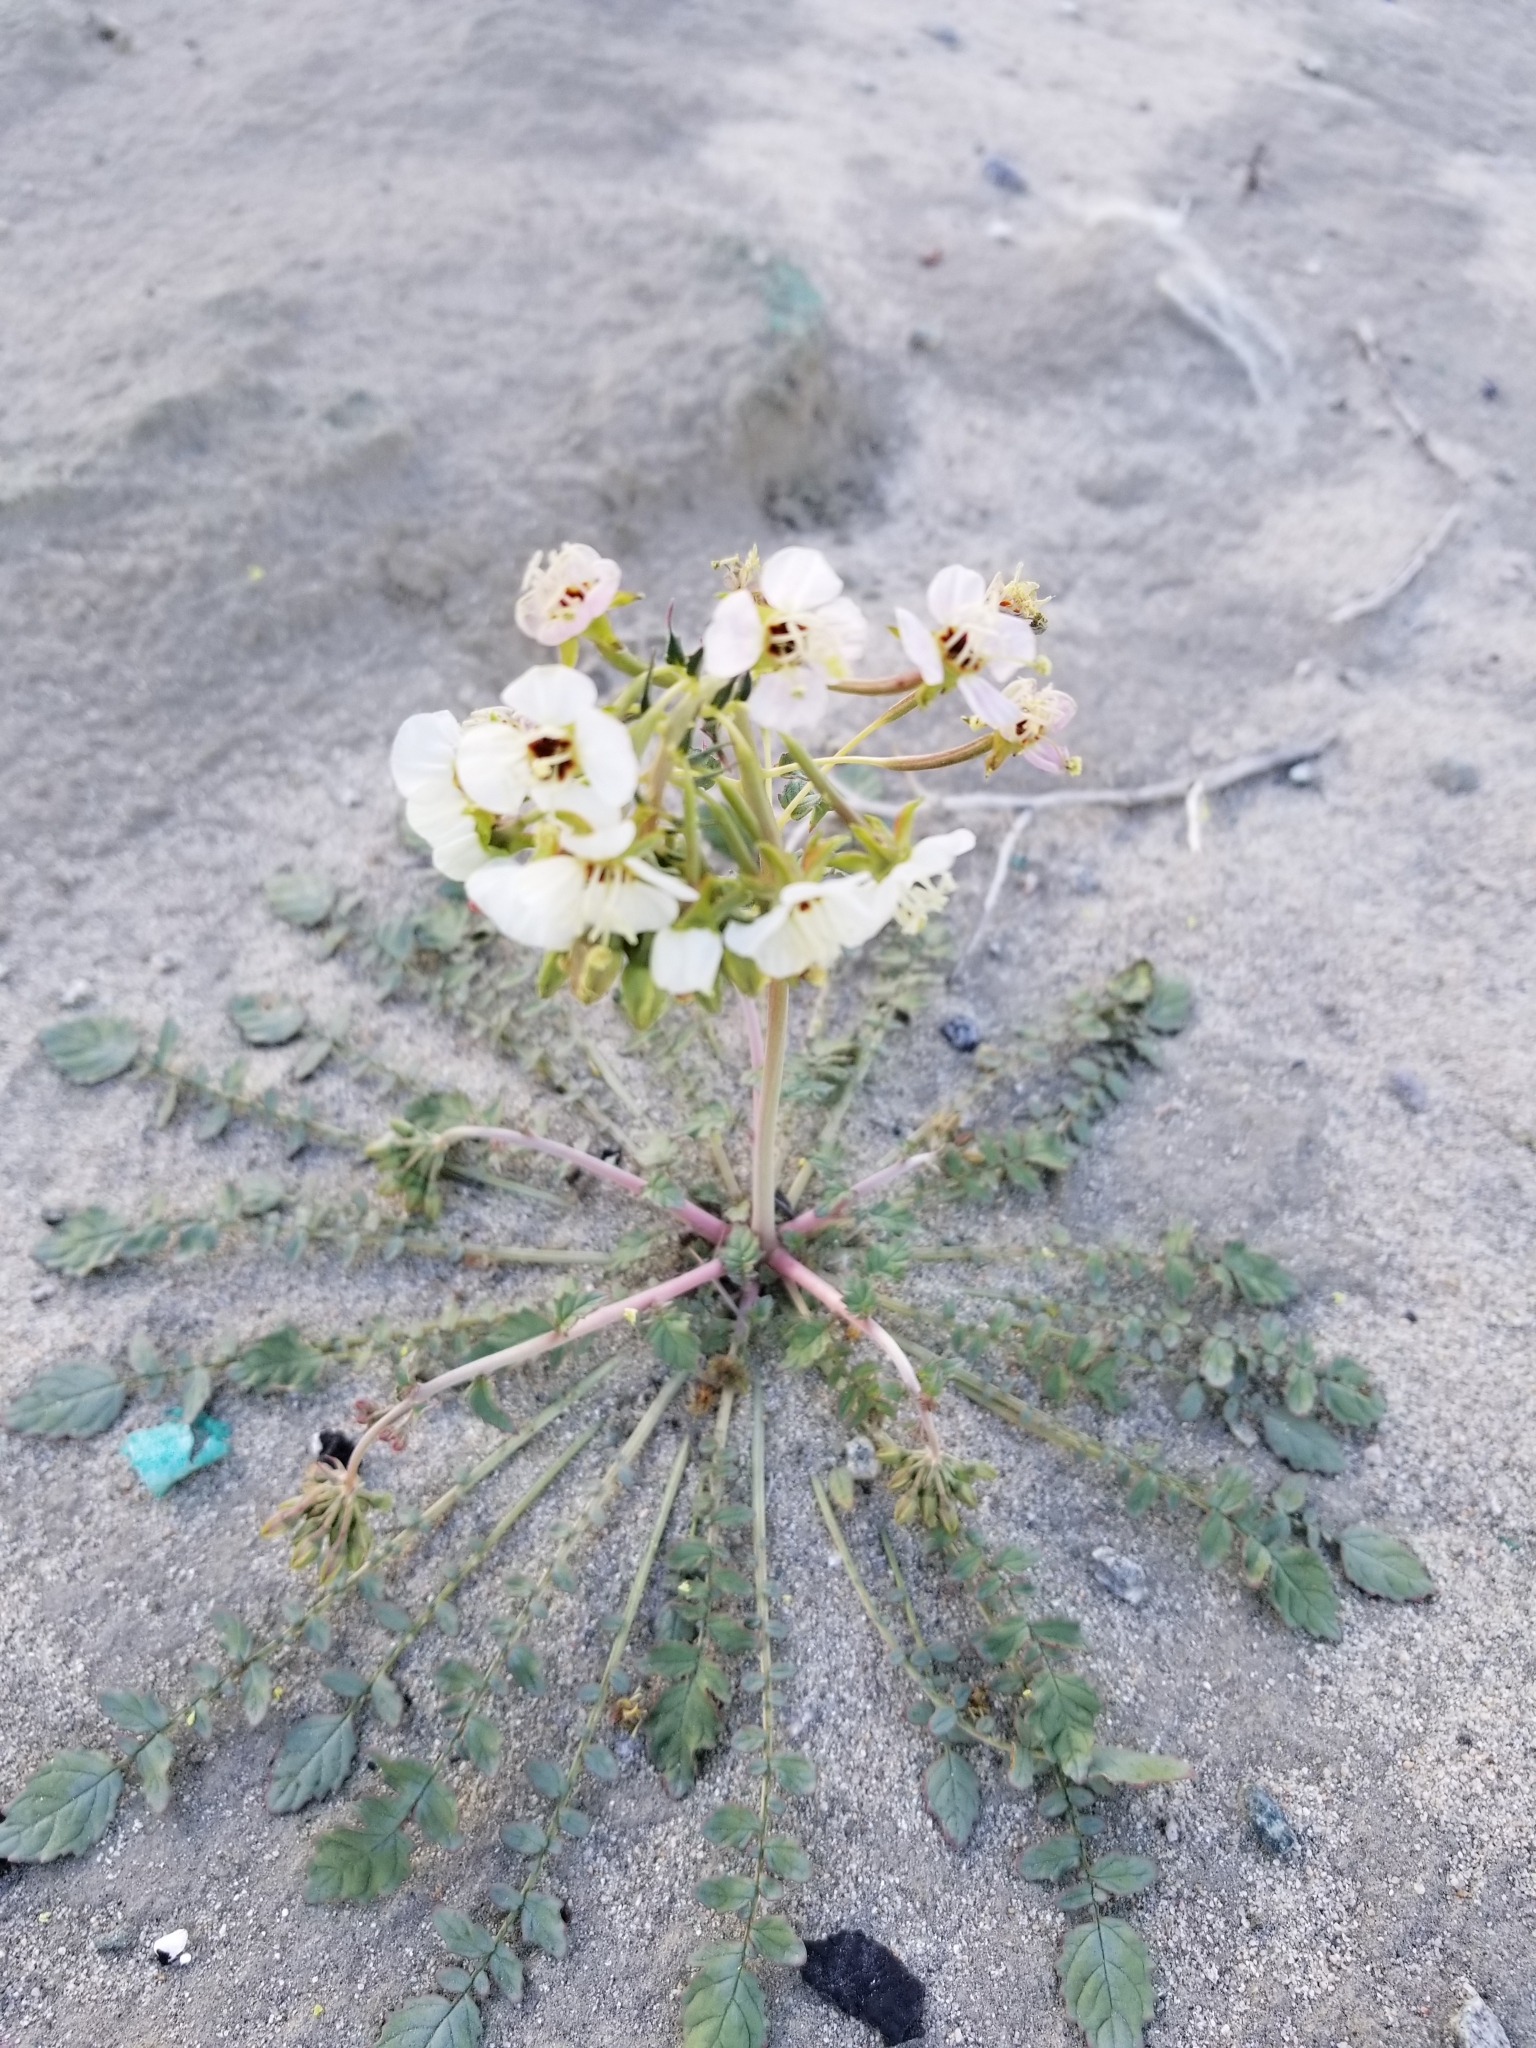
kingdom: Plantae
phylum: Tracheophyta
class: Magnoliopsida
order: Myrtales
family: Onagraceae
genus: Chylismia
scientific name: Chylismia claviformis
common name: Browneyes
